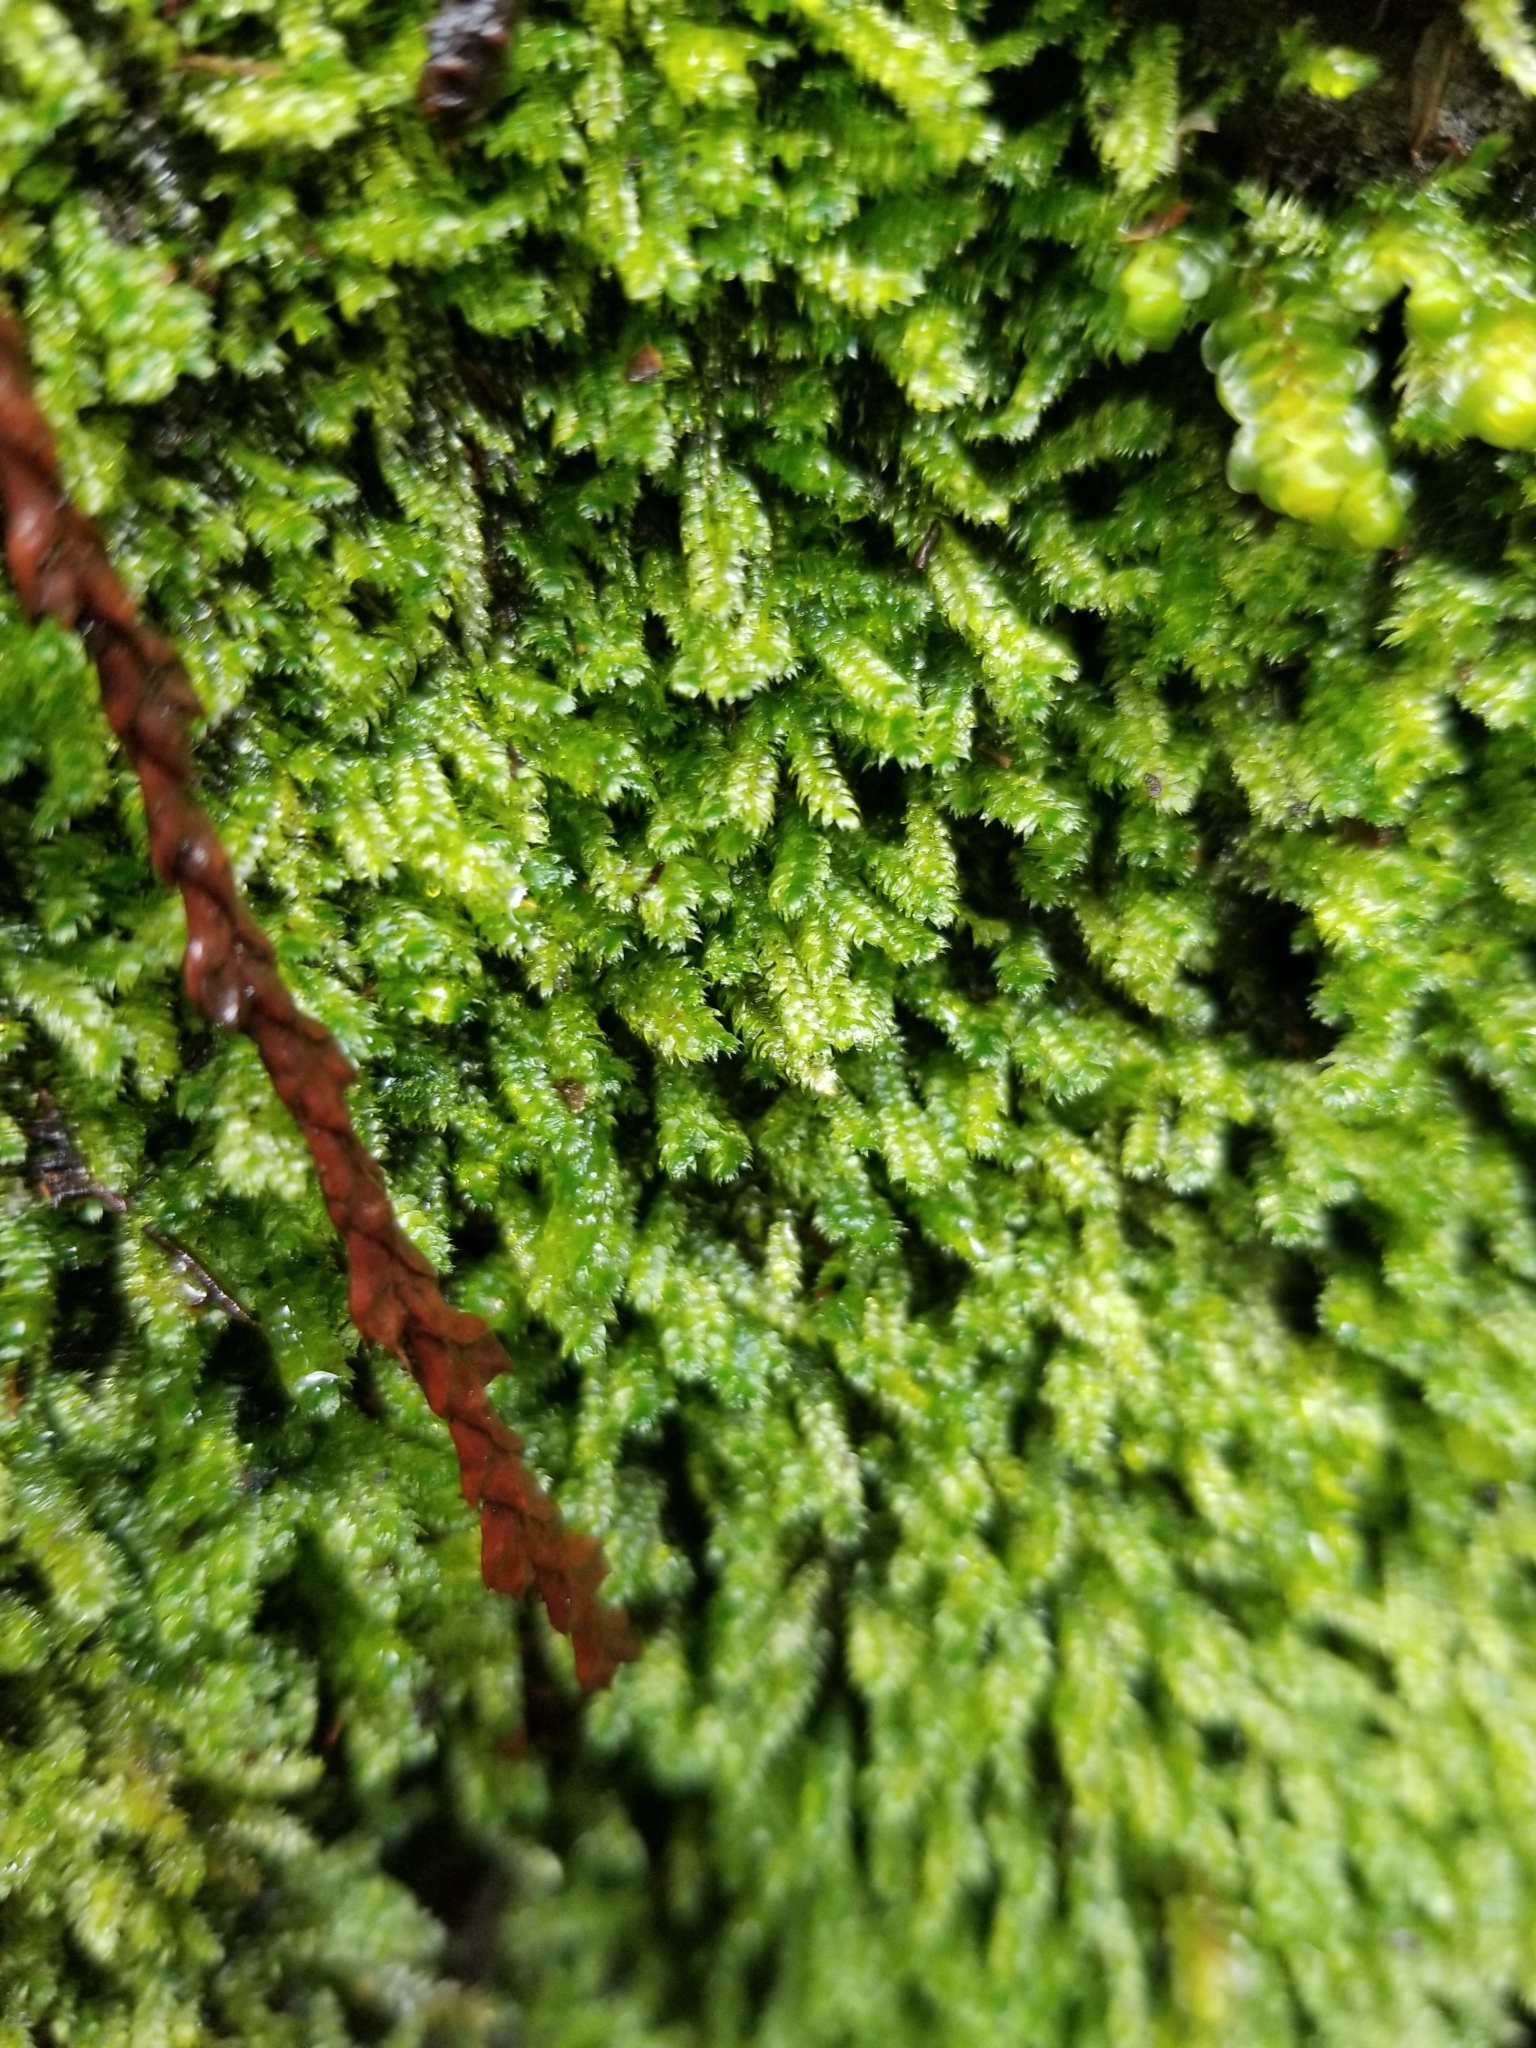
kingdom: Plantae
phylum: Bryophyta
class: Bryopsida
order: Hypnales
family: Plagiotheciaceae
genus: Pseudotaxiphyllum
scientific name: Pseudotaxiphyllum elegans
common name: Elegant silk moss
